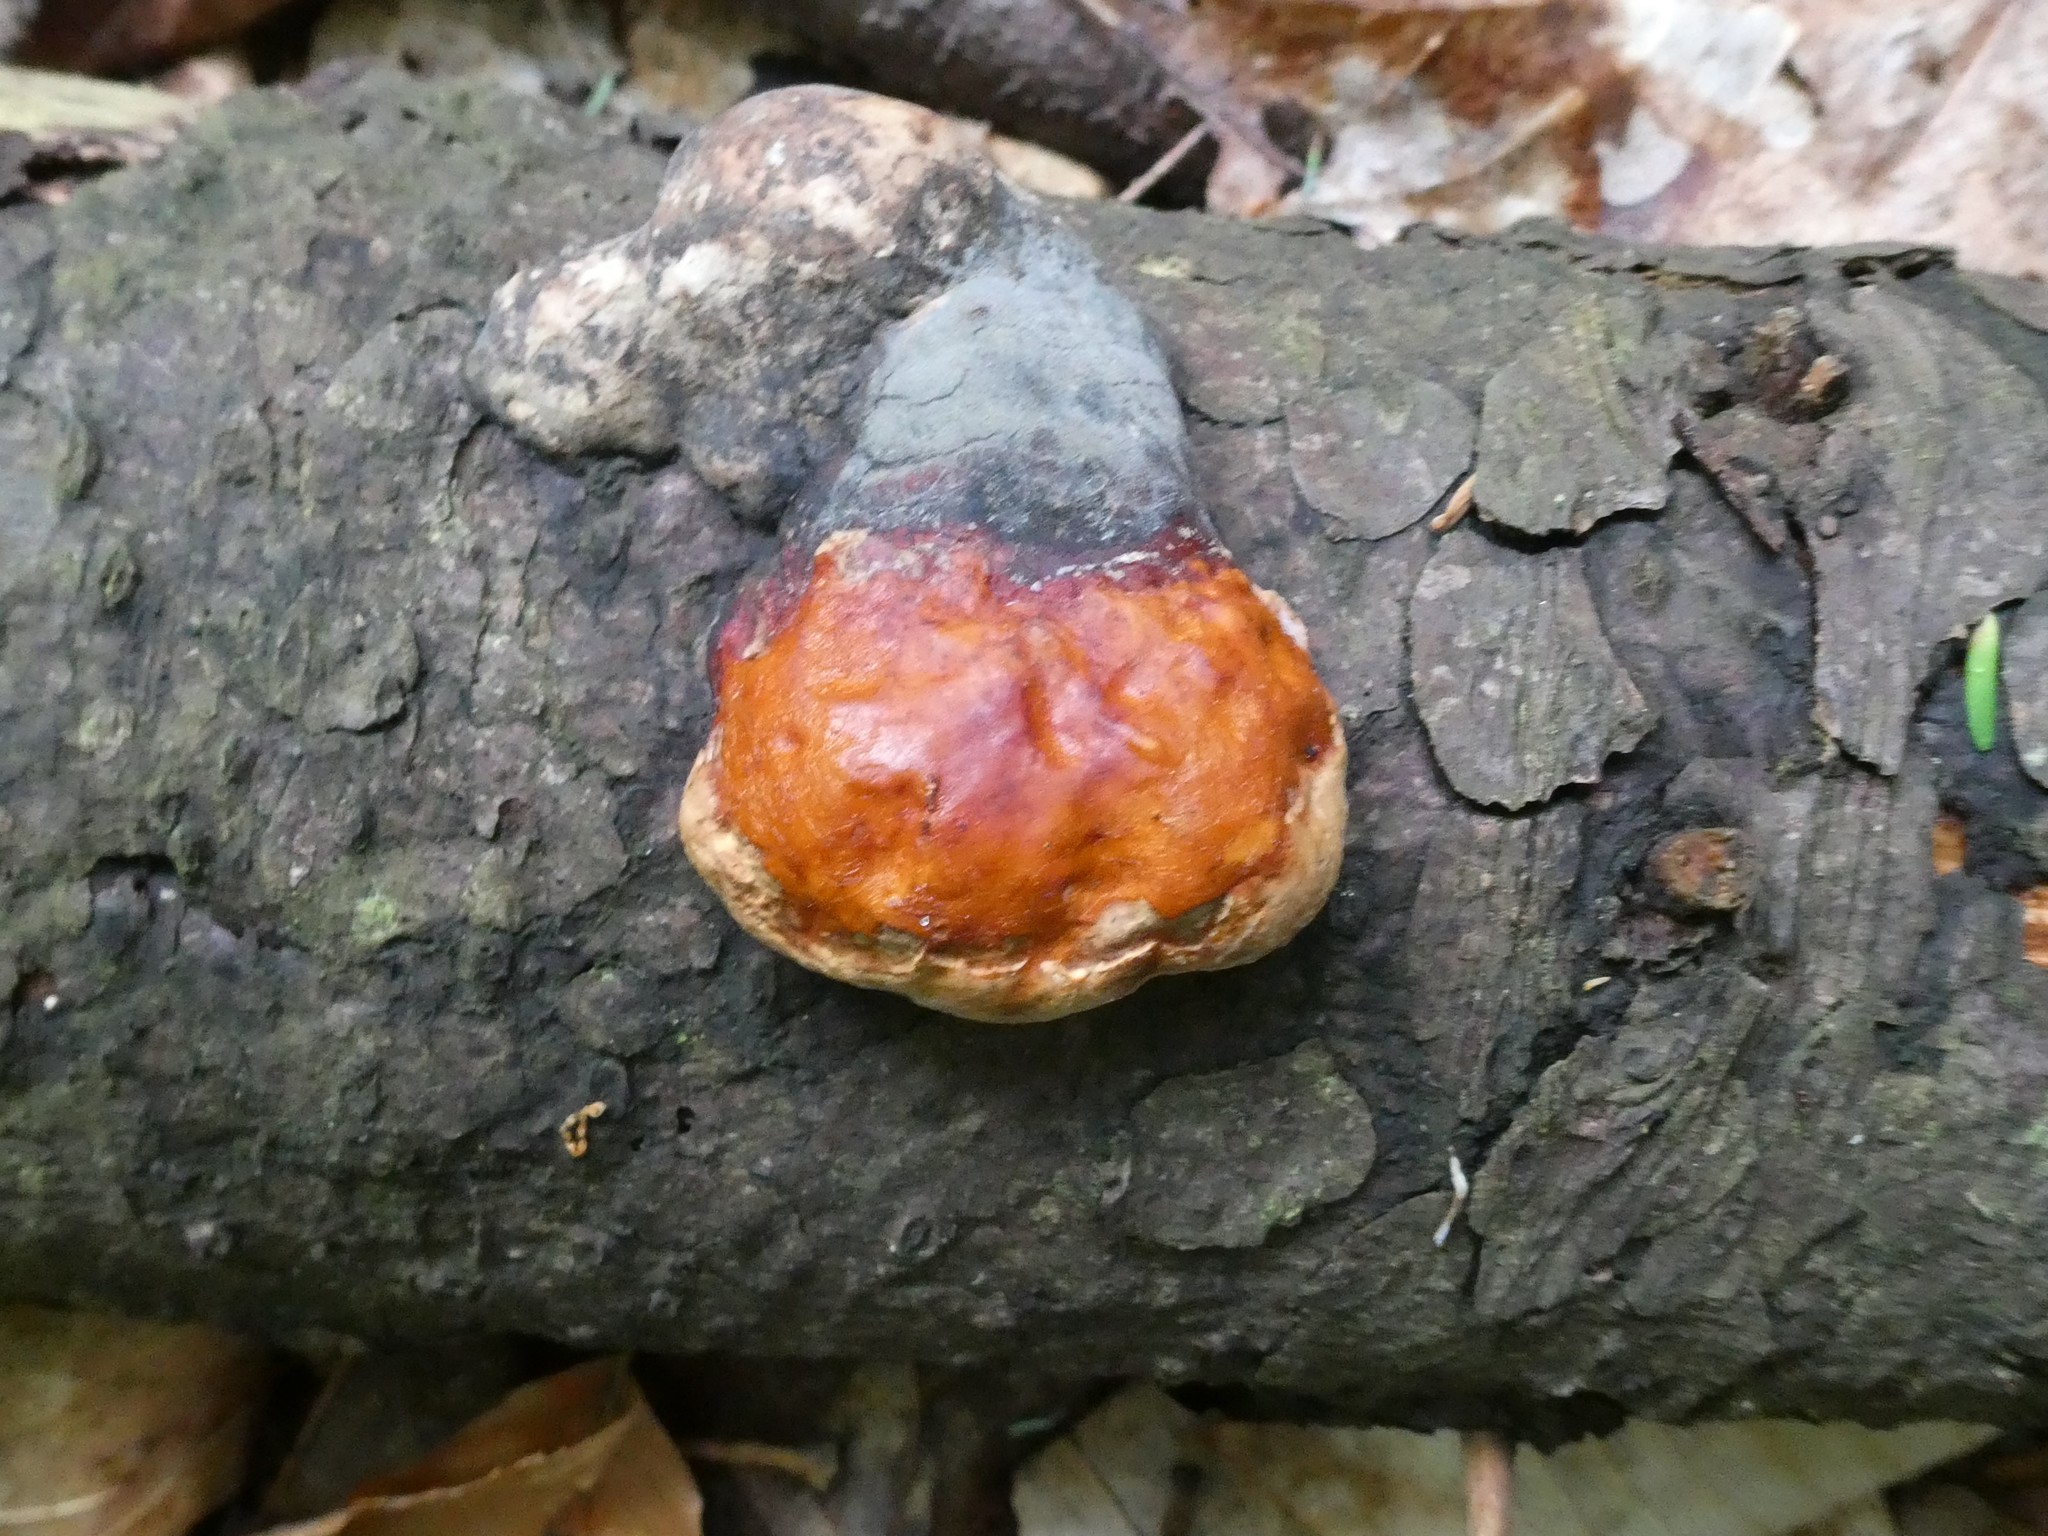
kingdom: Fungi
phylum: Basidiomycota
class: Agaricomycetes
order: Polyporales
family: Fomitopsidaceae
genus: Fomitopsis
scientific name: Fomitopsis mounceae
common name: Northern red belt
